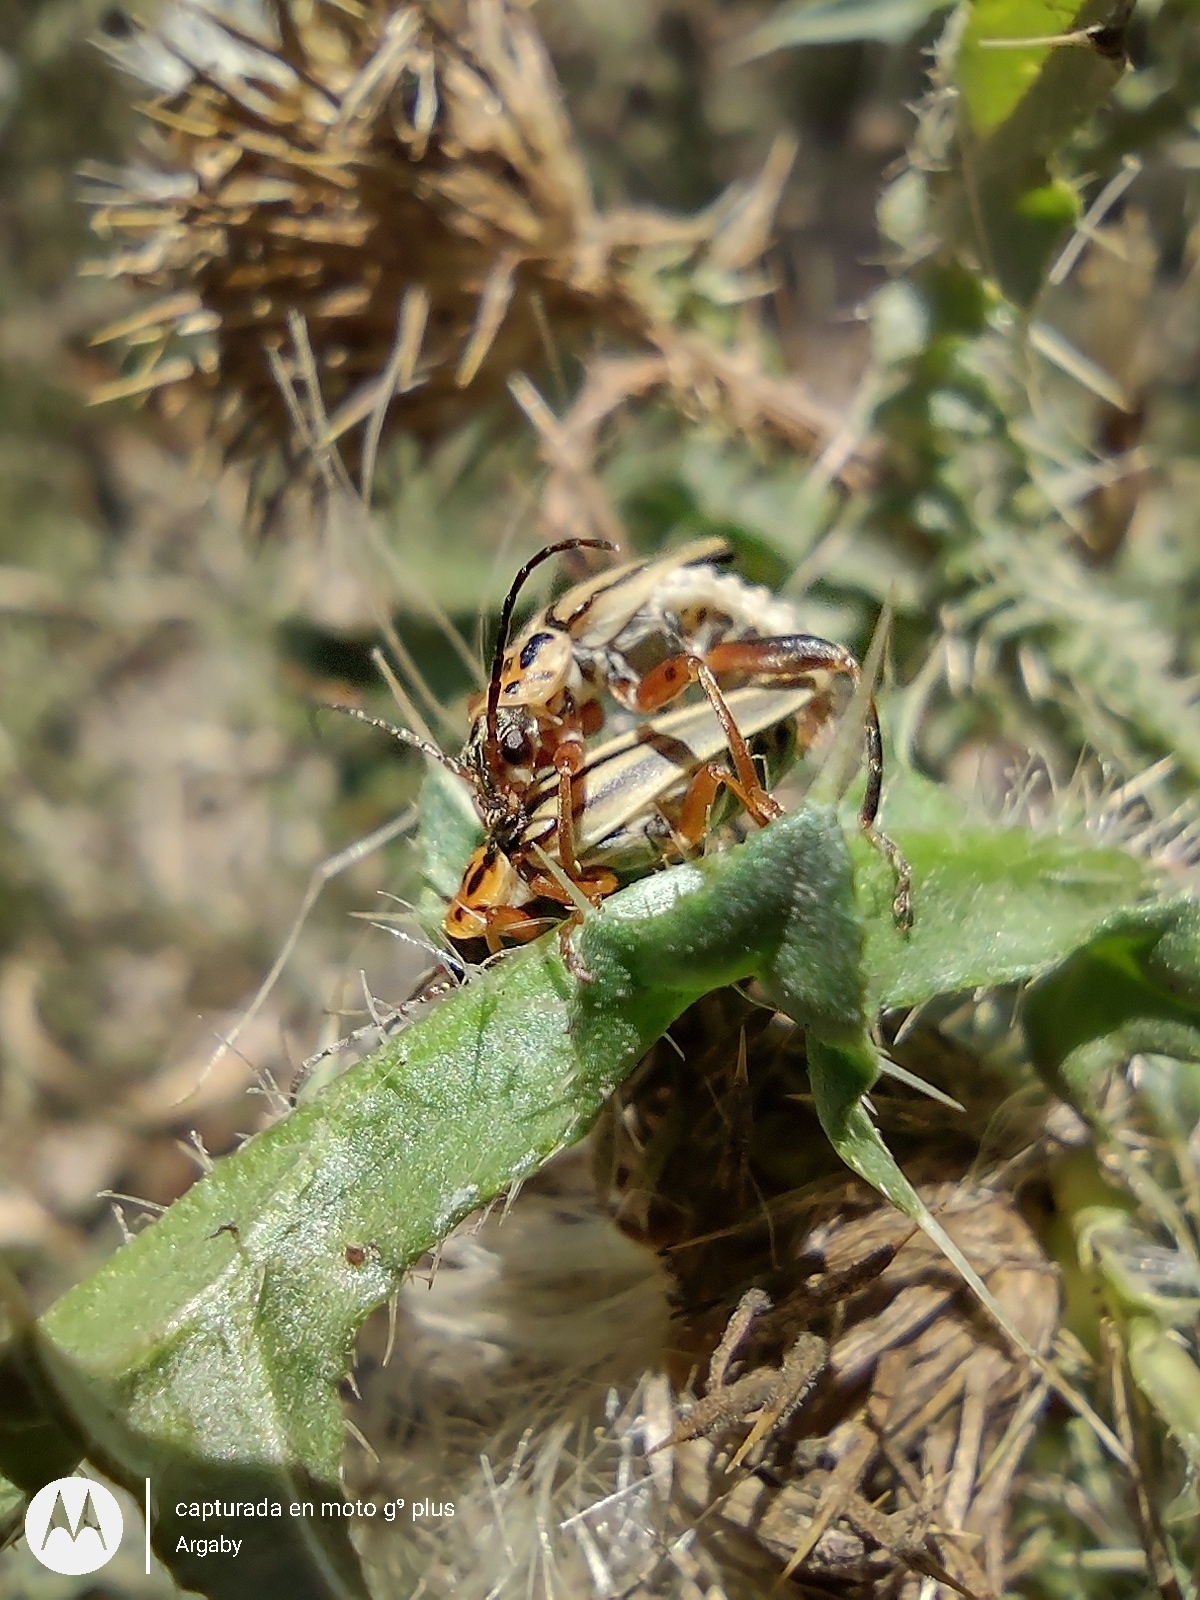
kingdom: Animalia
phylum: Arthropoda
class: Insecta
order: Coleoptera
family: Cantharidae
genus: Chauliognathus
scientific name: Chauliognathus
